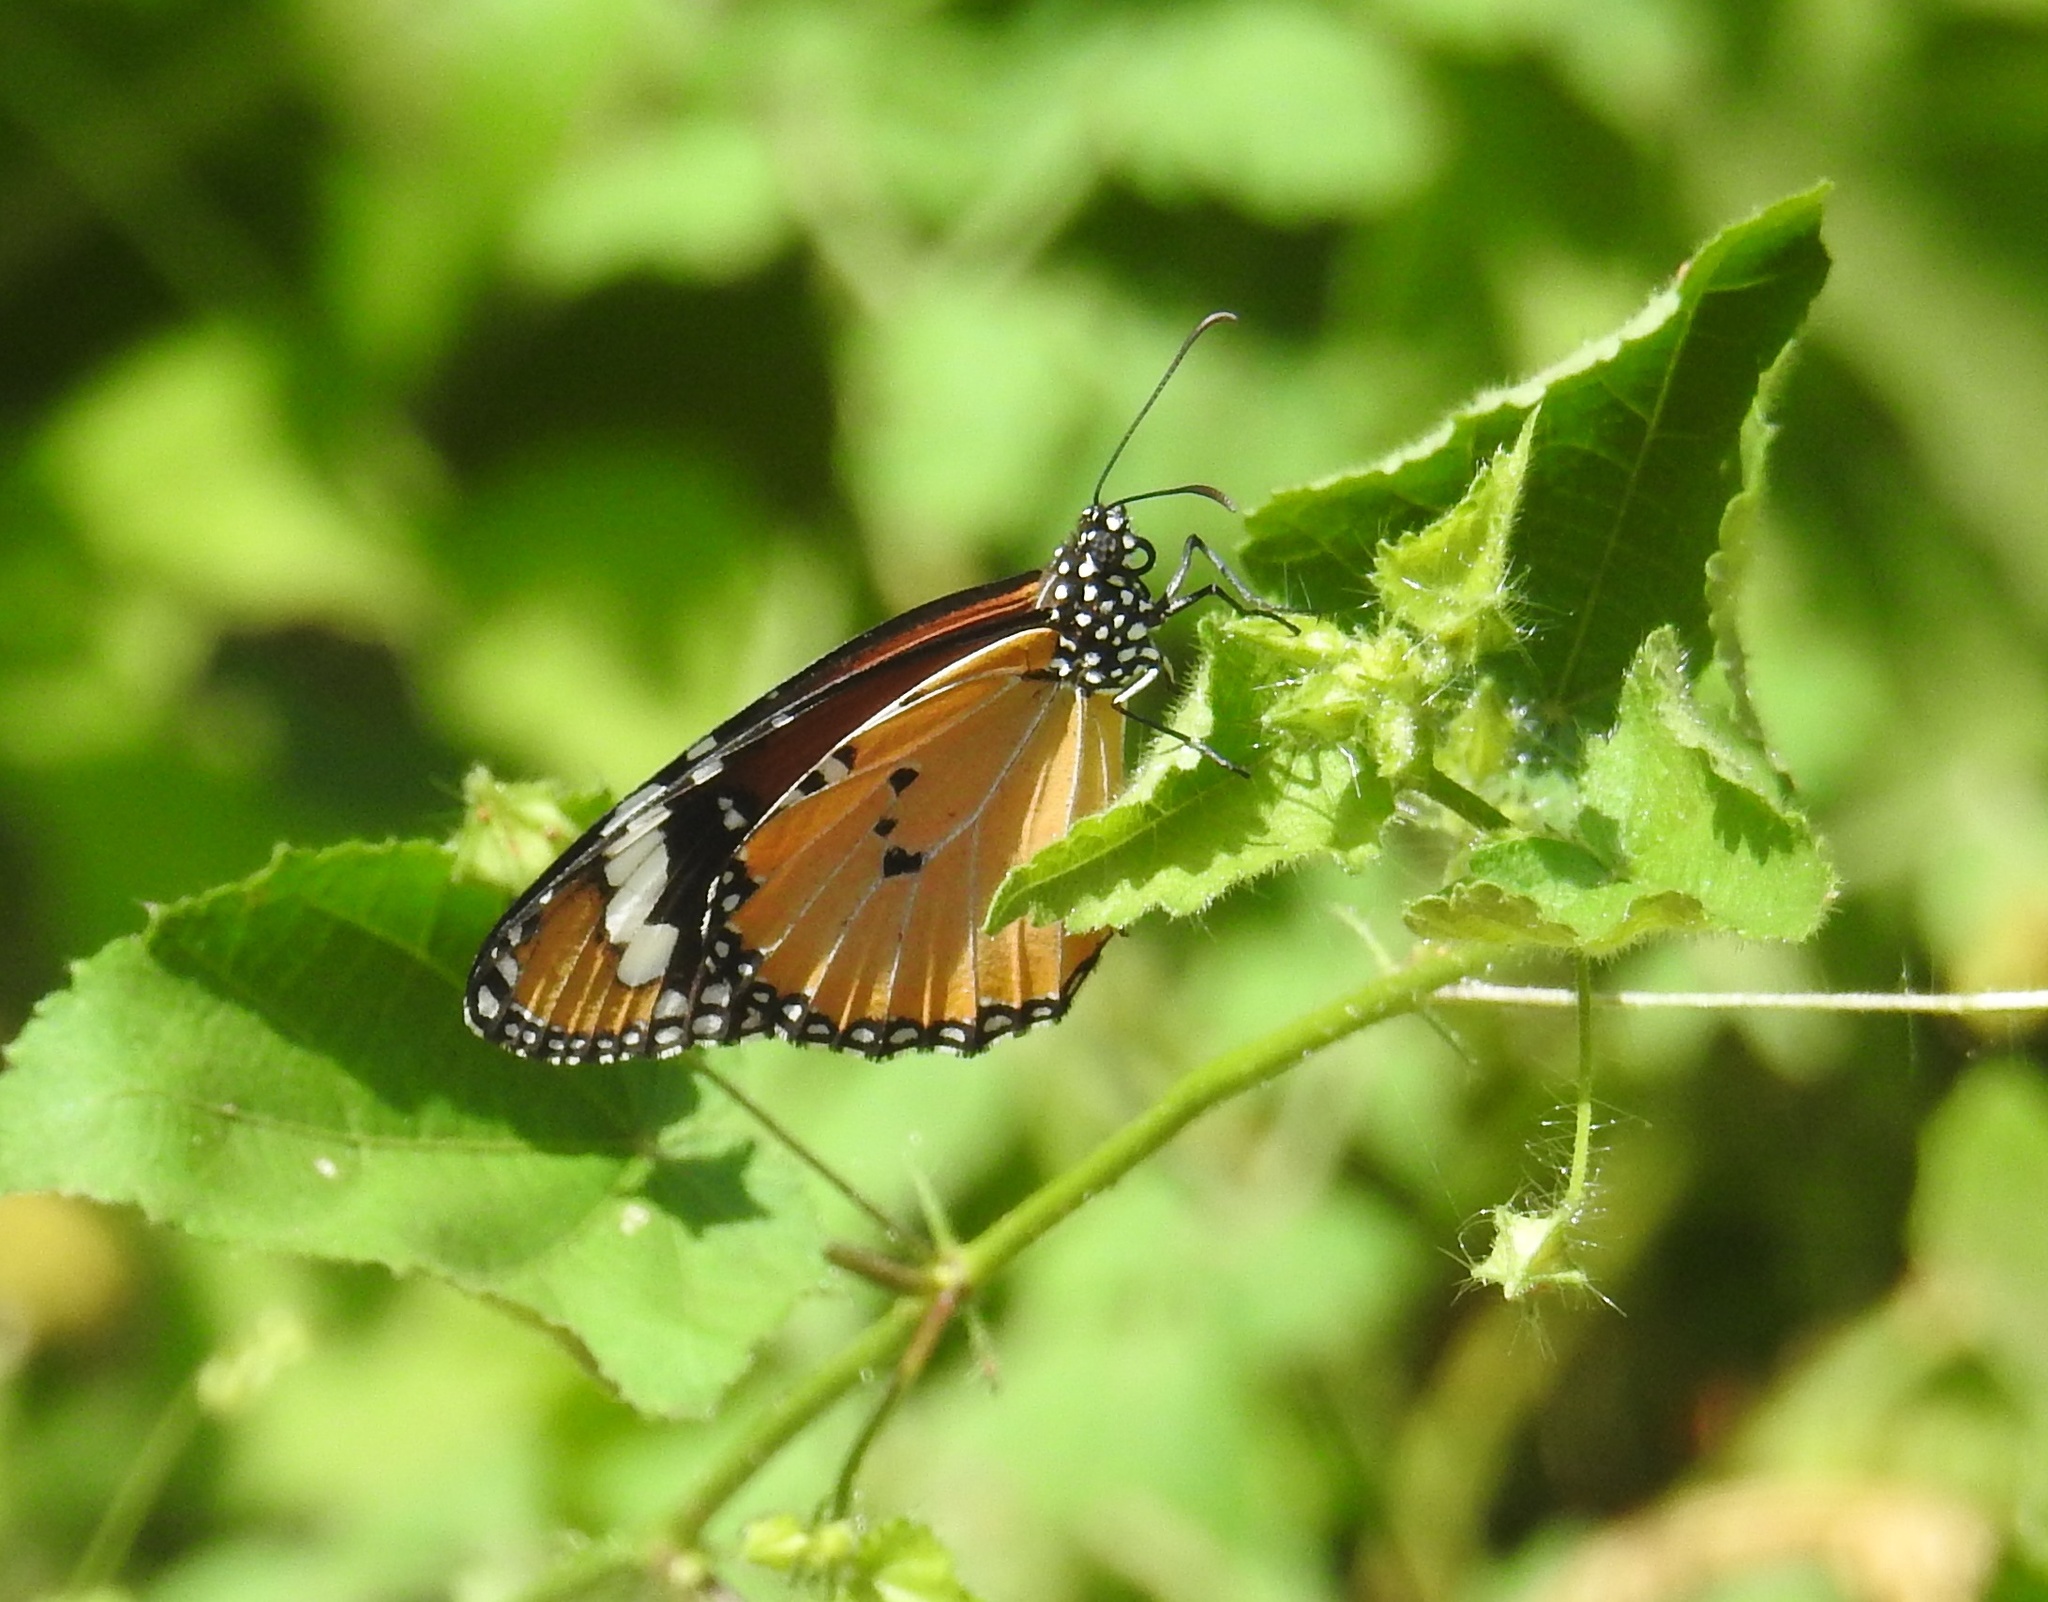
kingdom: Animalia
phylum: Arthropoda
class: Insecta
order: Lepidoptera
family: Nymphalidae
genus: Danaus
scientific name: Danaus chrysippus
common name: Plain tiger
